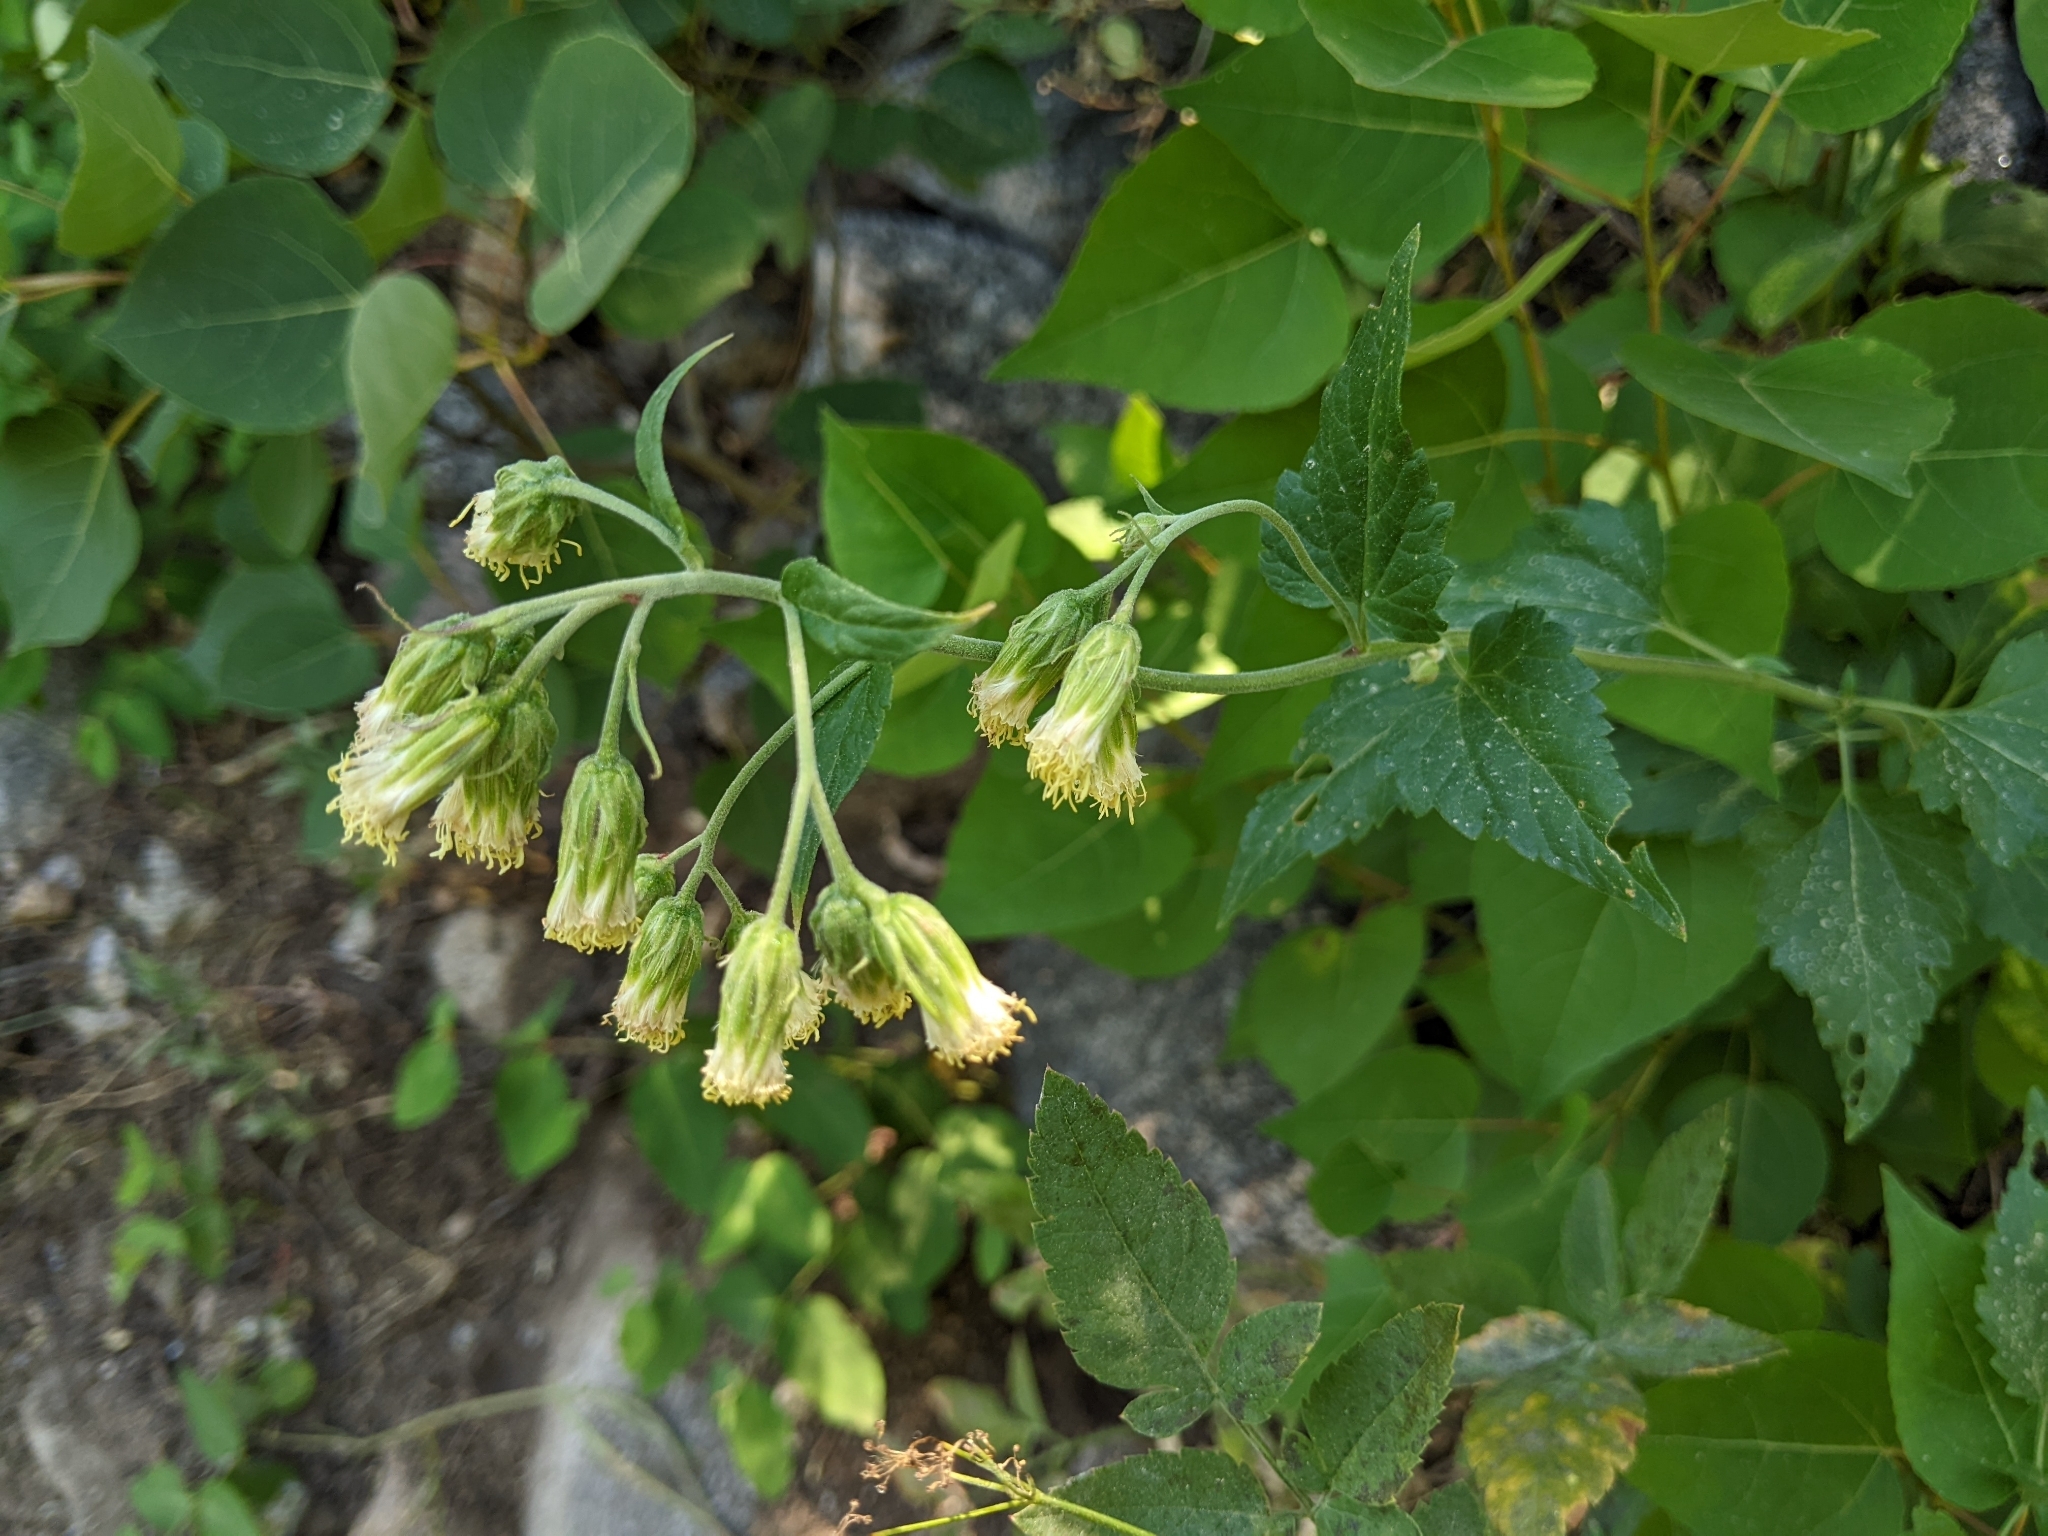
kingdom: Plantae
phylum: Tracheophyta
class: Magnoliopsida
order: Asterales
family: Asteraceae
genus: Brickellia
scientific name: Brickellia grandiflora
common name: Large-flowered brickellia
